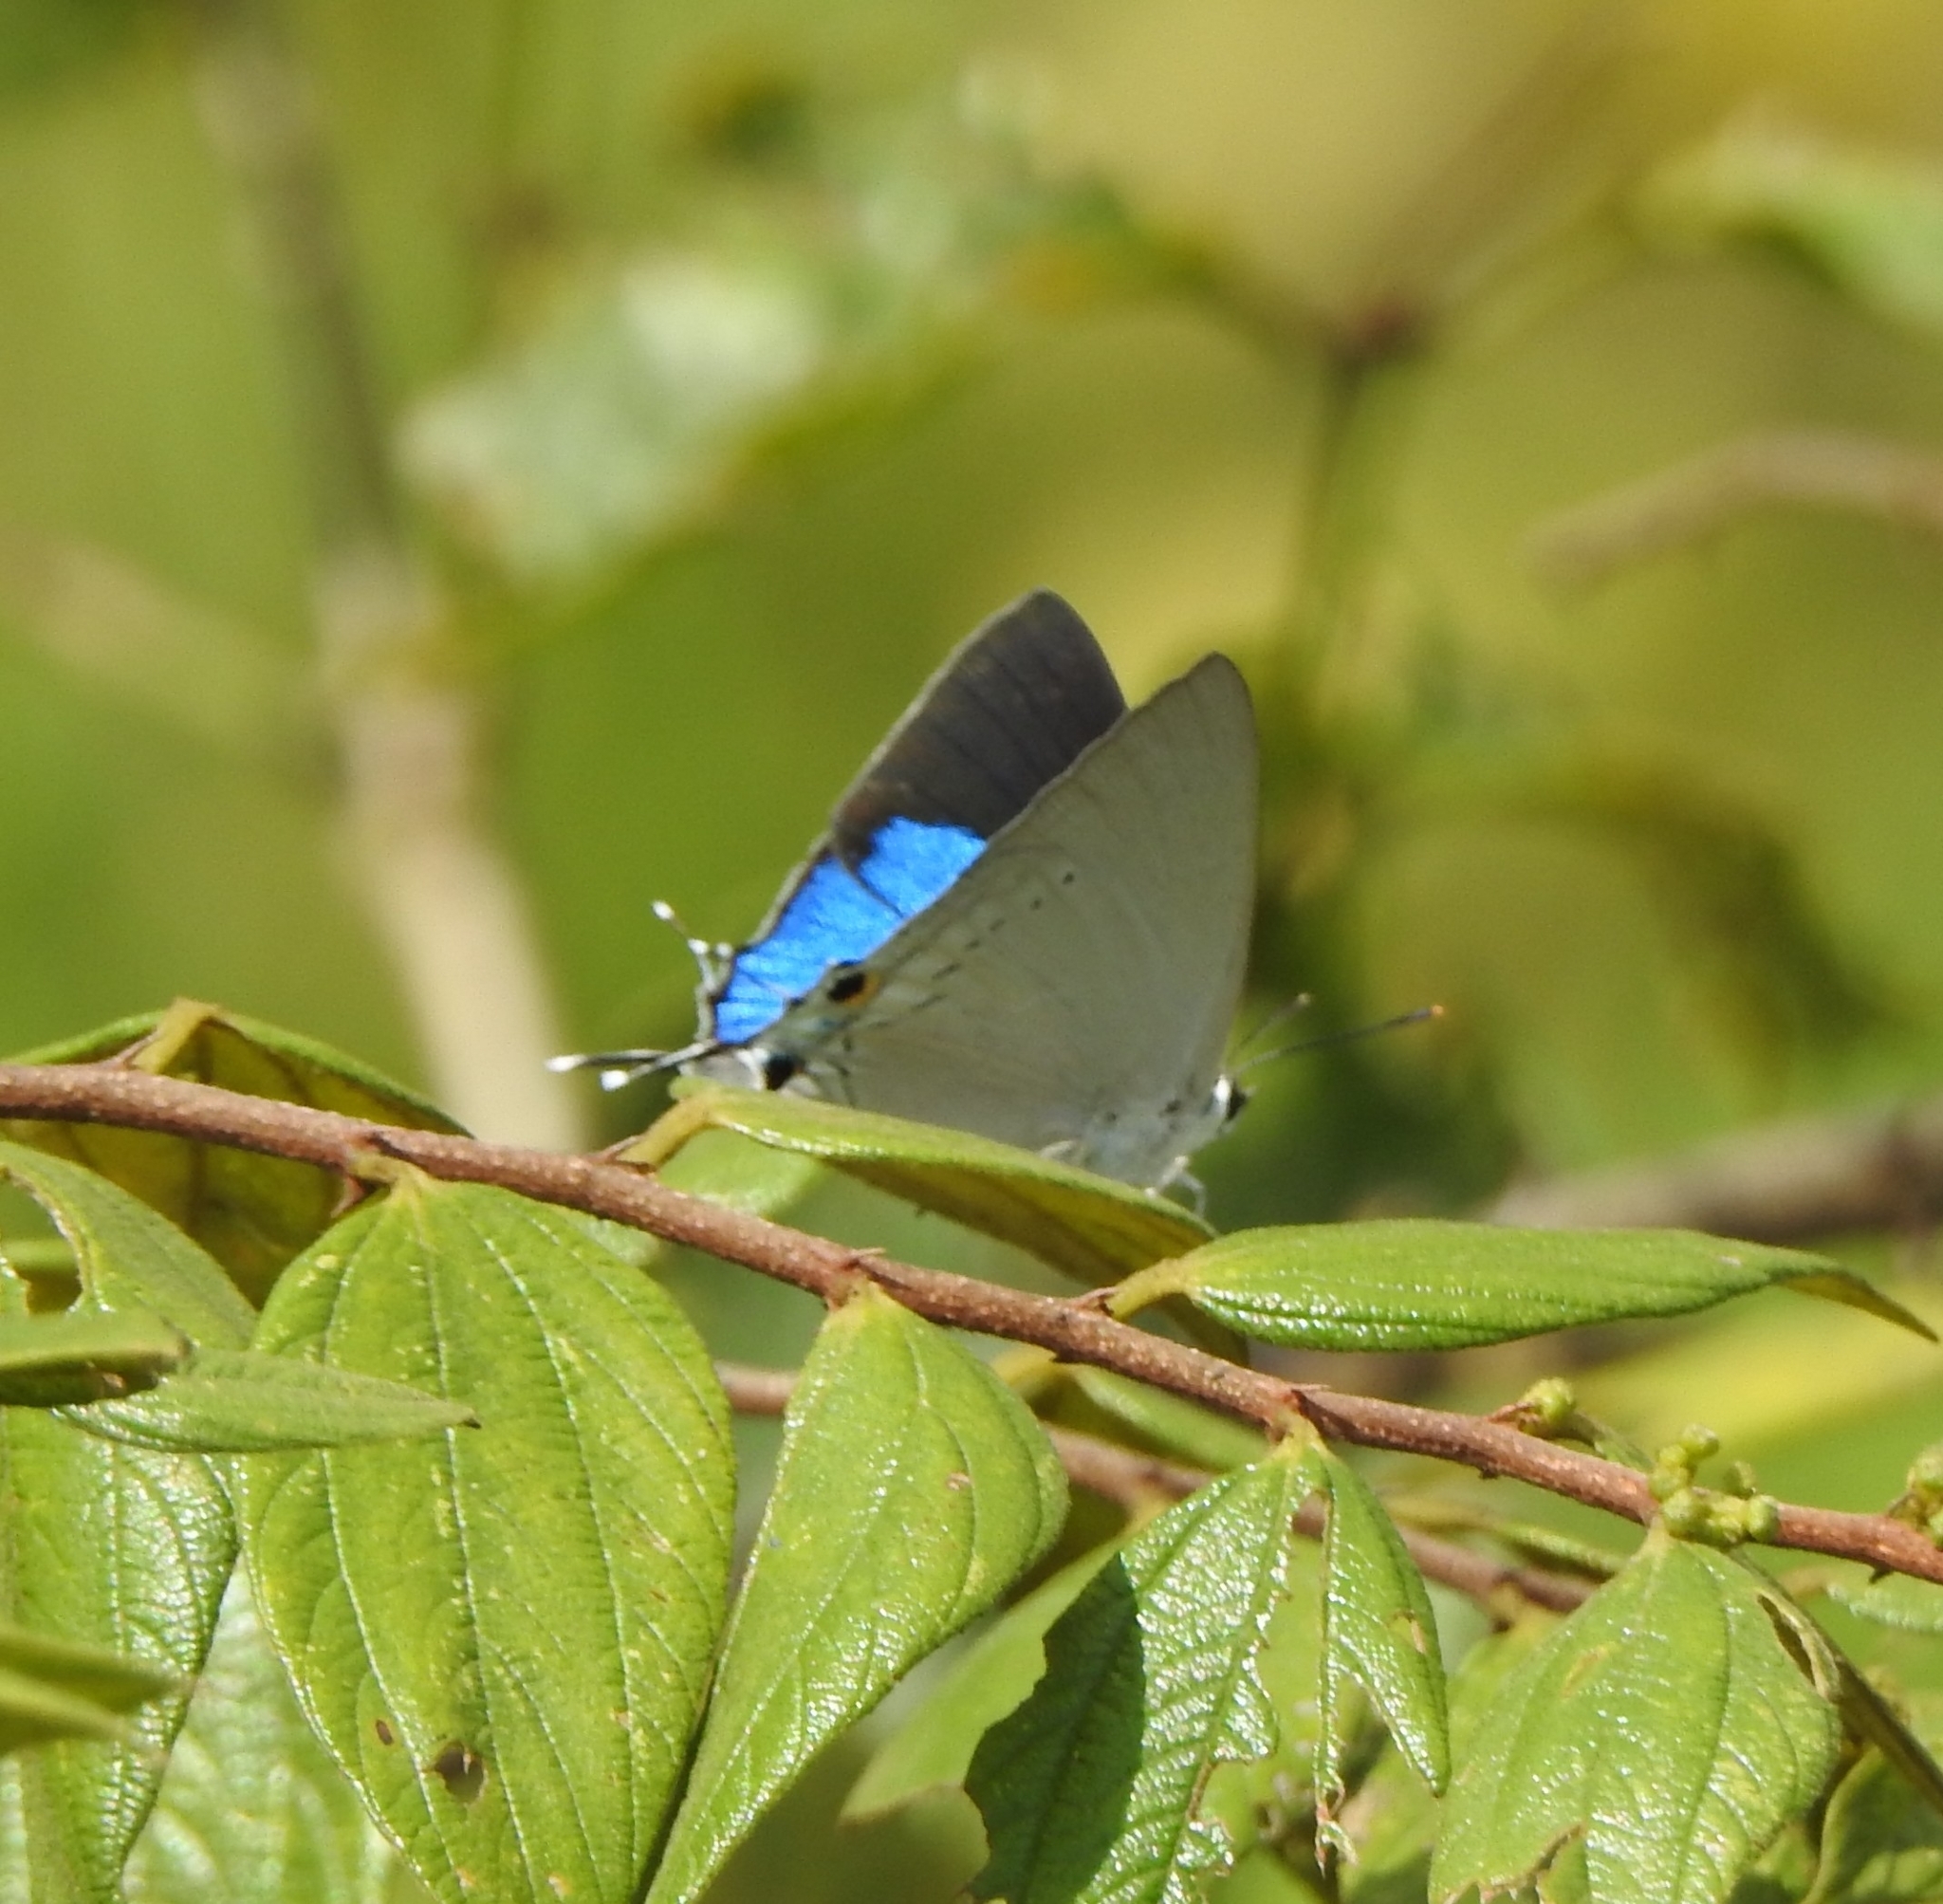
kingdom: Animalia
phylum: Arthropoda
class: Insecta
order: Lepidoptera
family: Lycaenidae
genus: Tajuria
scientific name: Tajuria cippus
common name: Peacock royal
